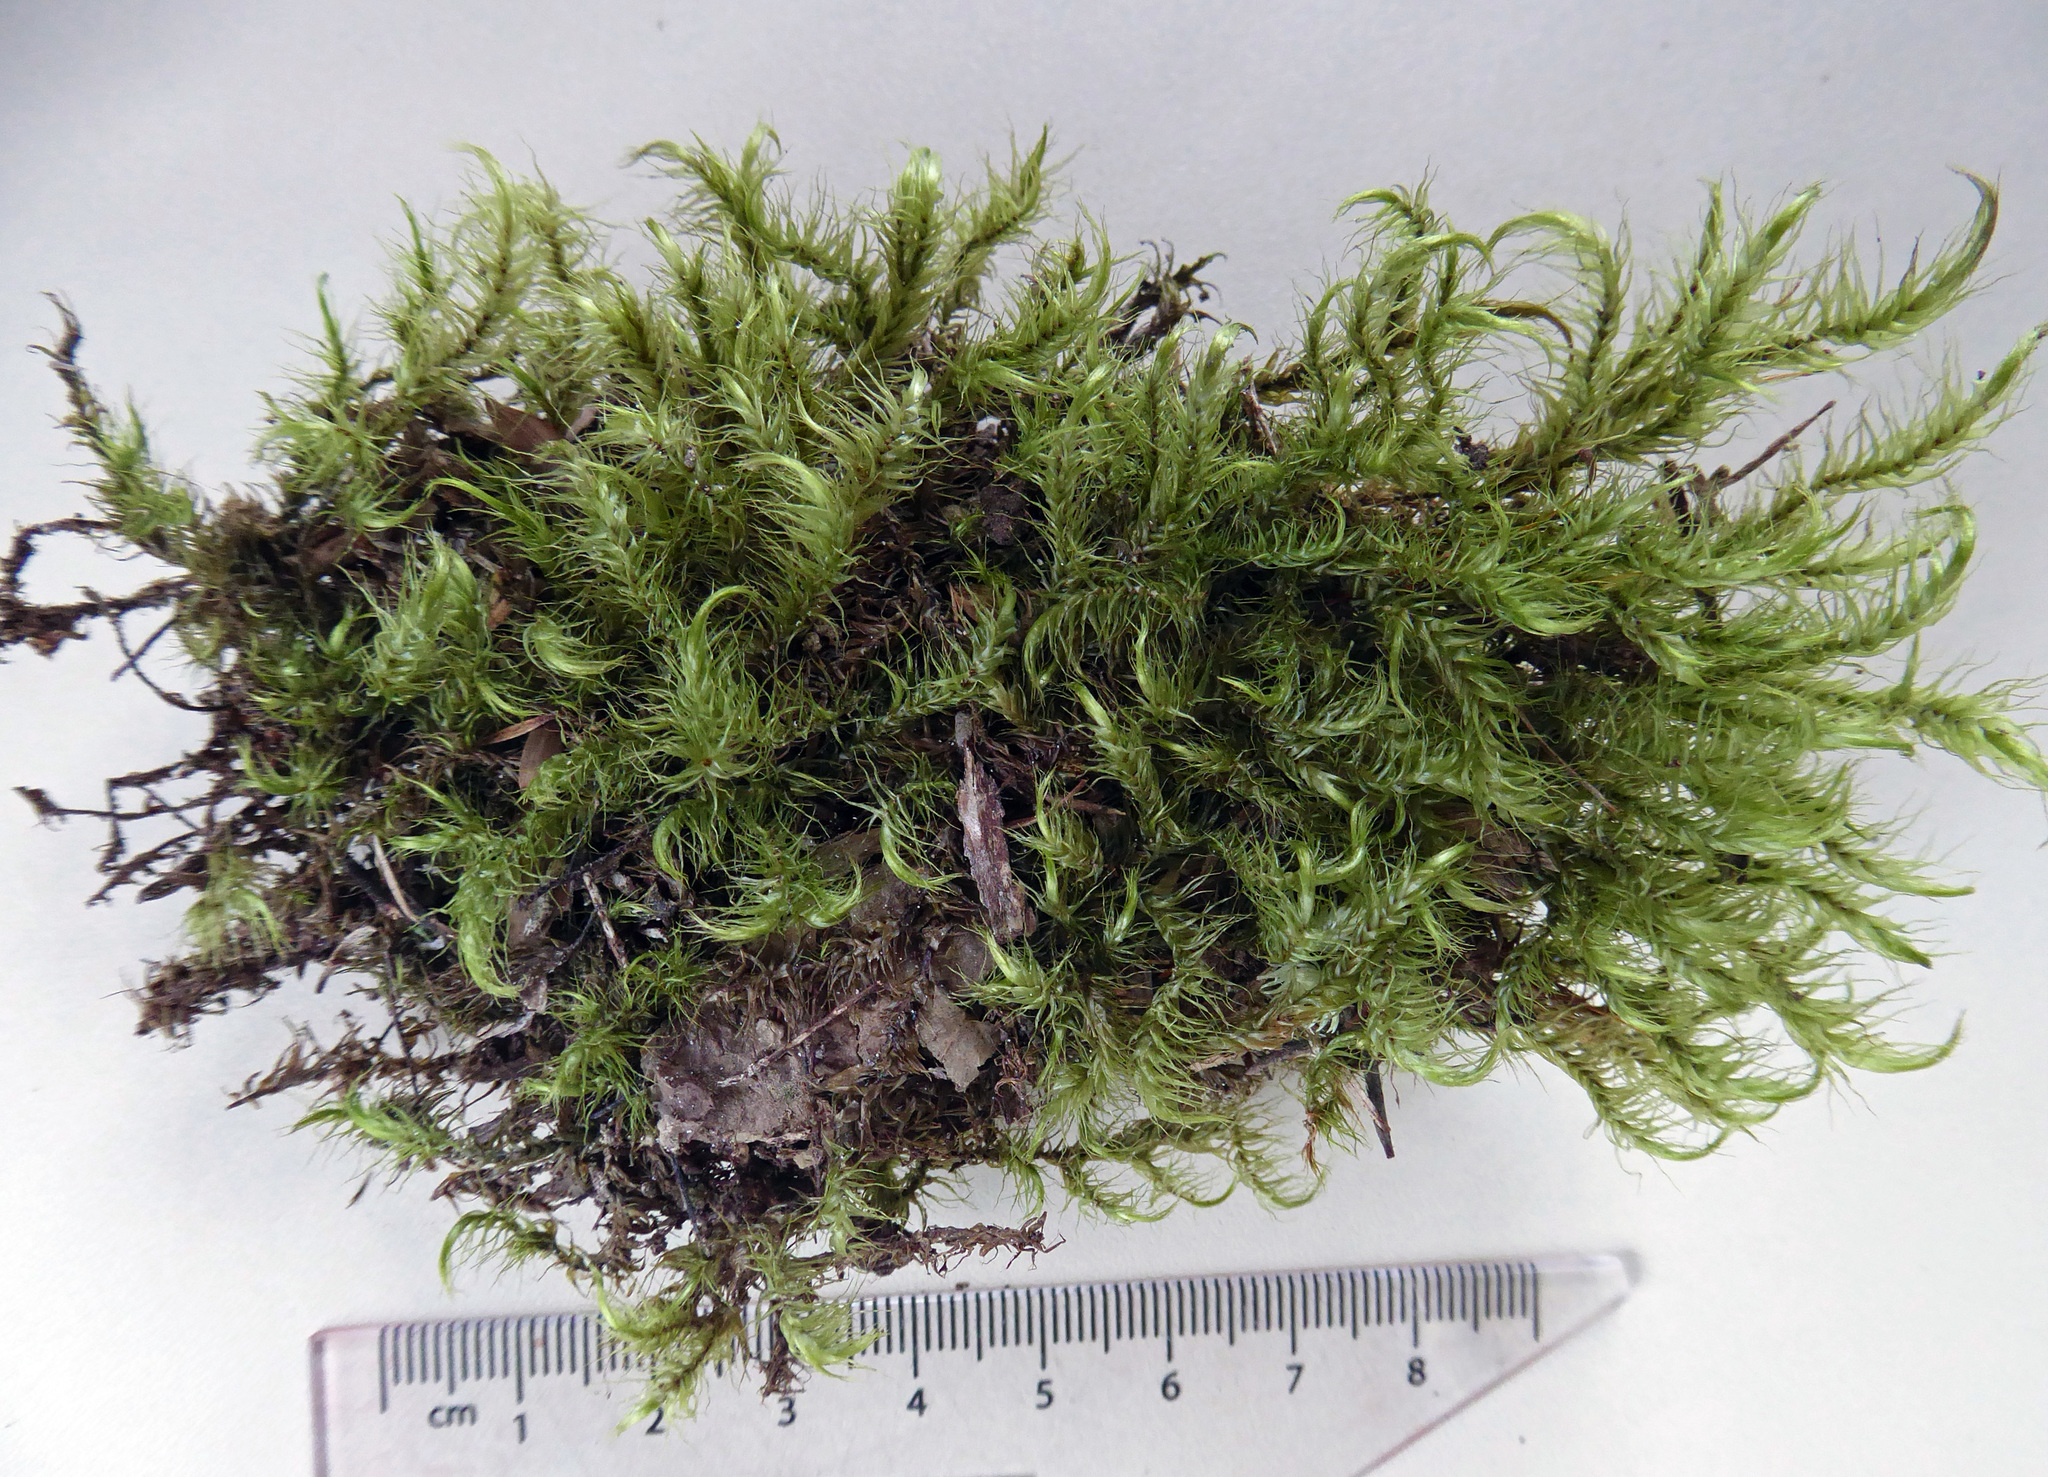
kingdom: Plantae
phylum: Bryophyta
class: Bryopsida
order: Dicranales
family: Dicranaceae
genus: Dicranoloma
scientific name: Dicranoloma billardieri
